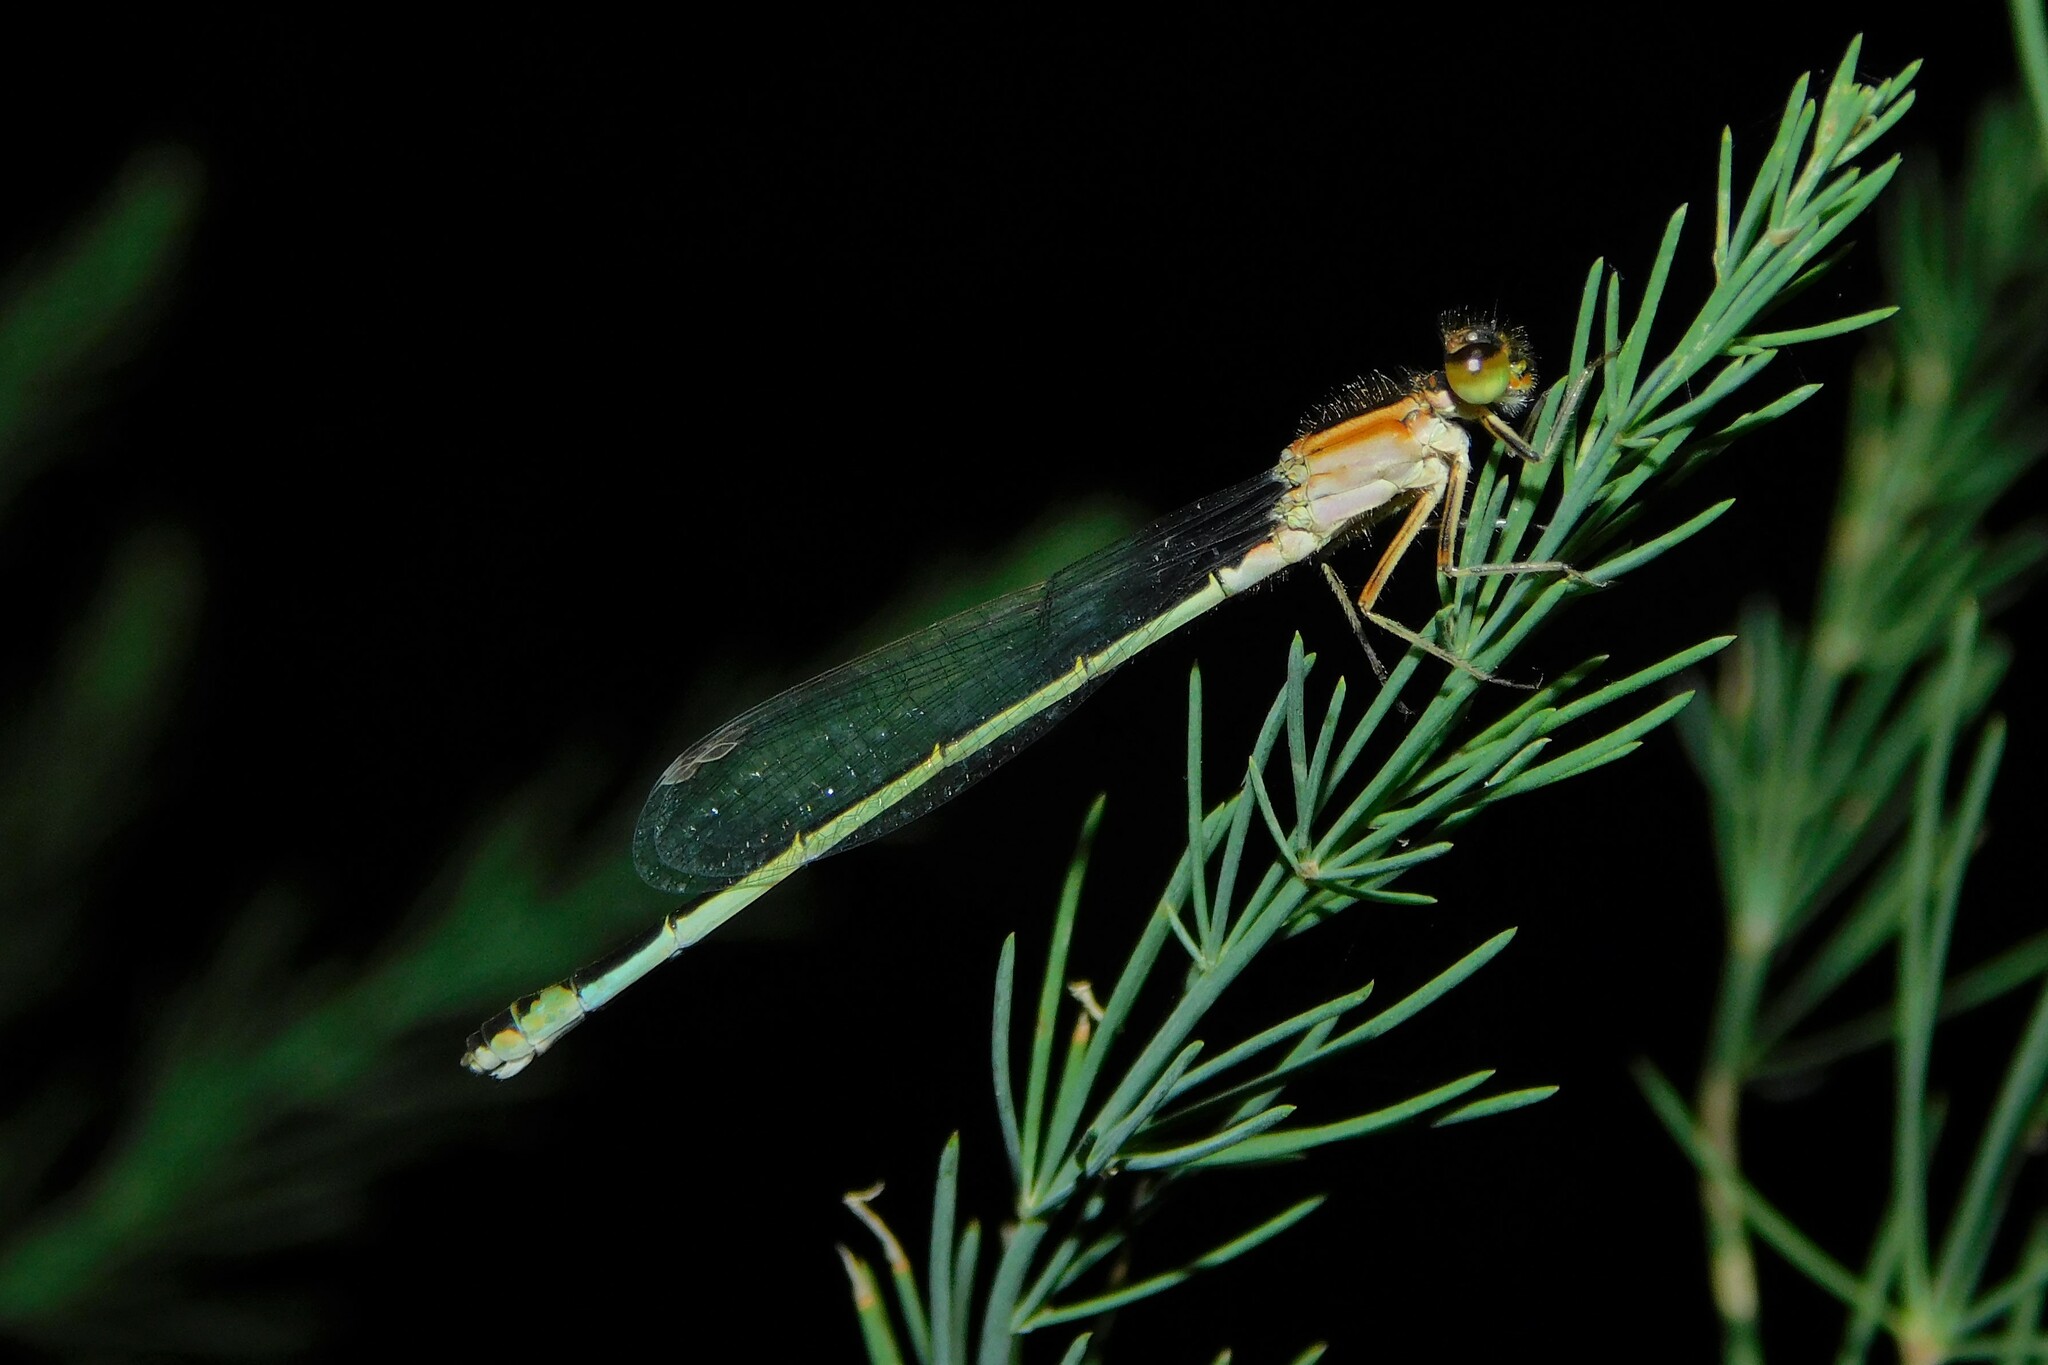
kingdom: Animalia
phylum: Arthropoda
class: Insecta
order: Odonata
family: Coenagrionidae
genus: Ischnura
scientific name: Ischnura elegans
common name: Blue-tailed damselfly
